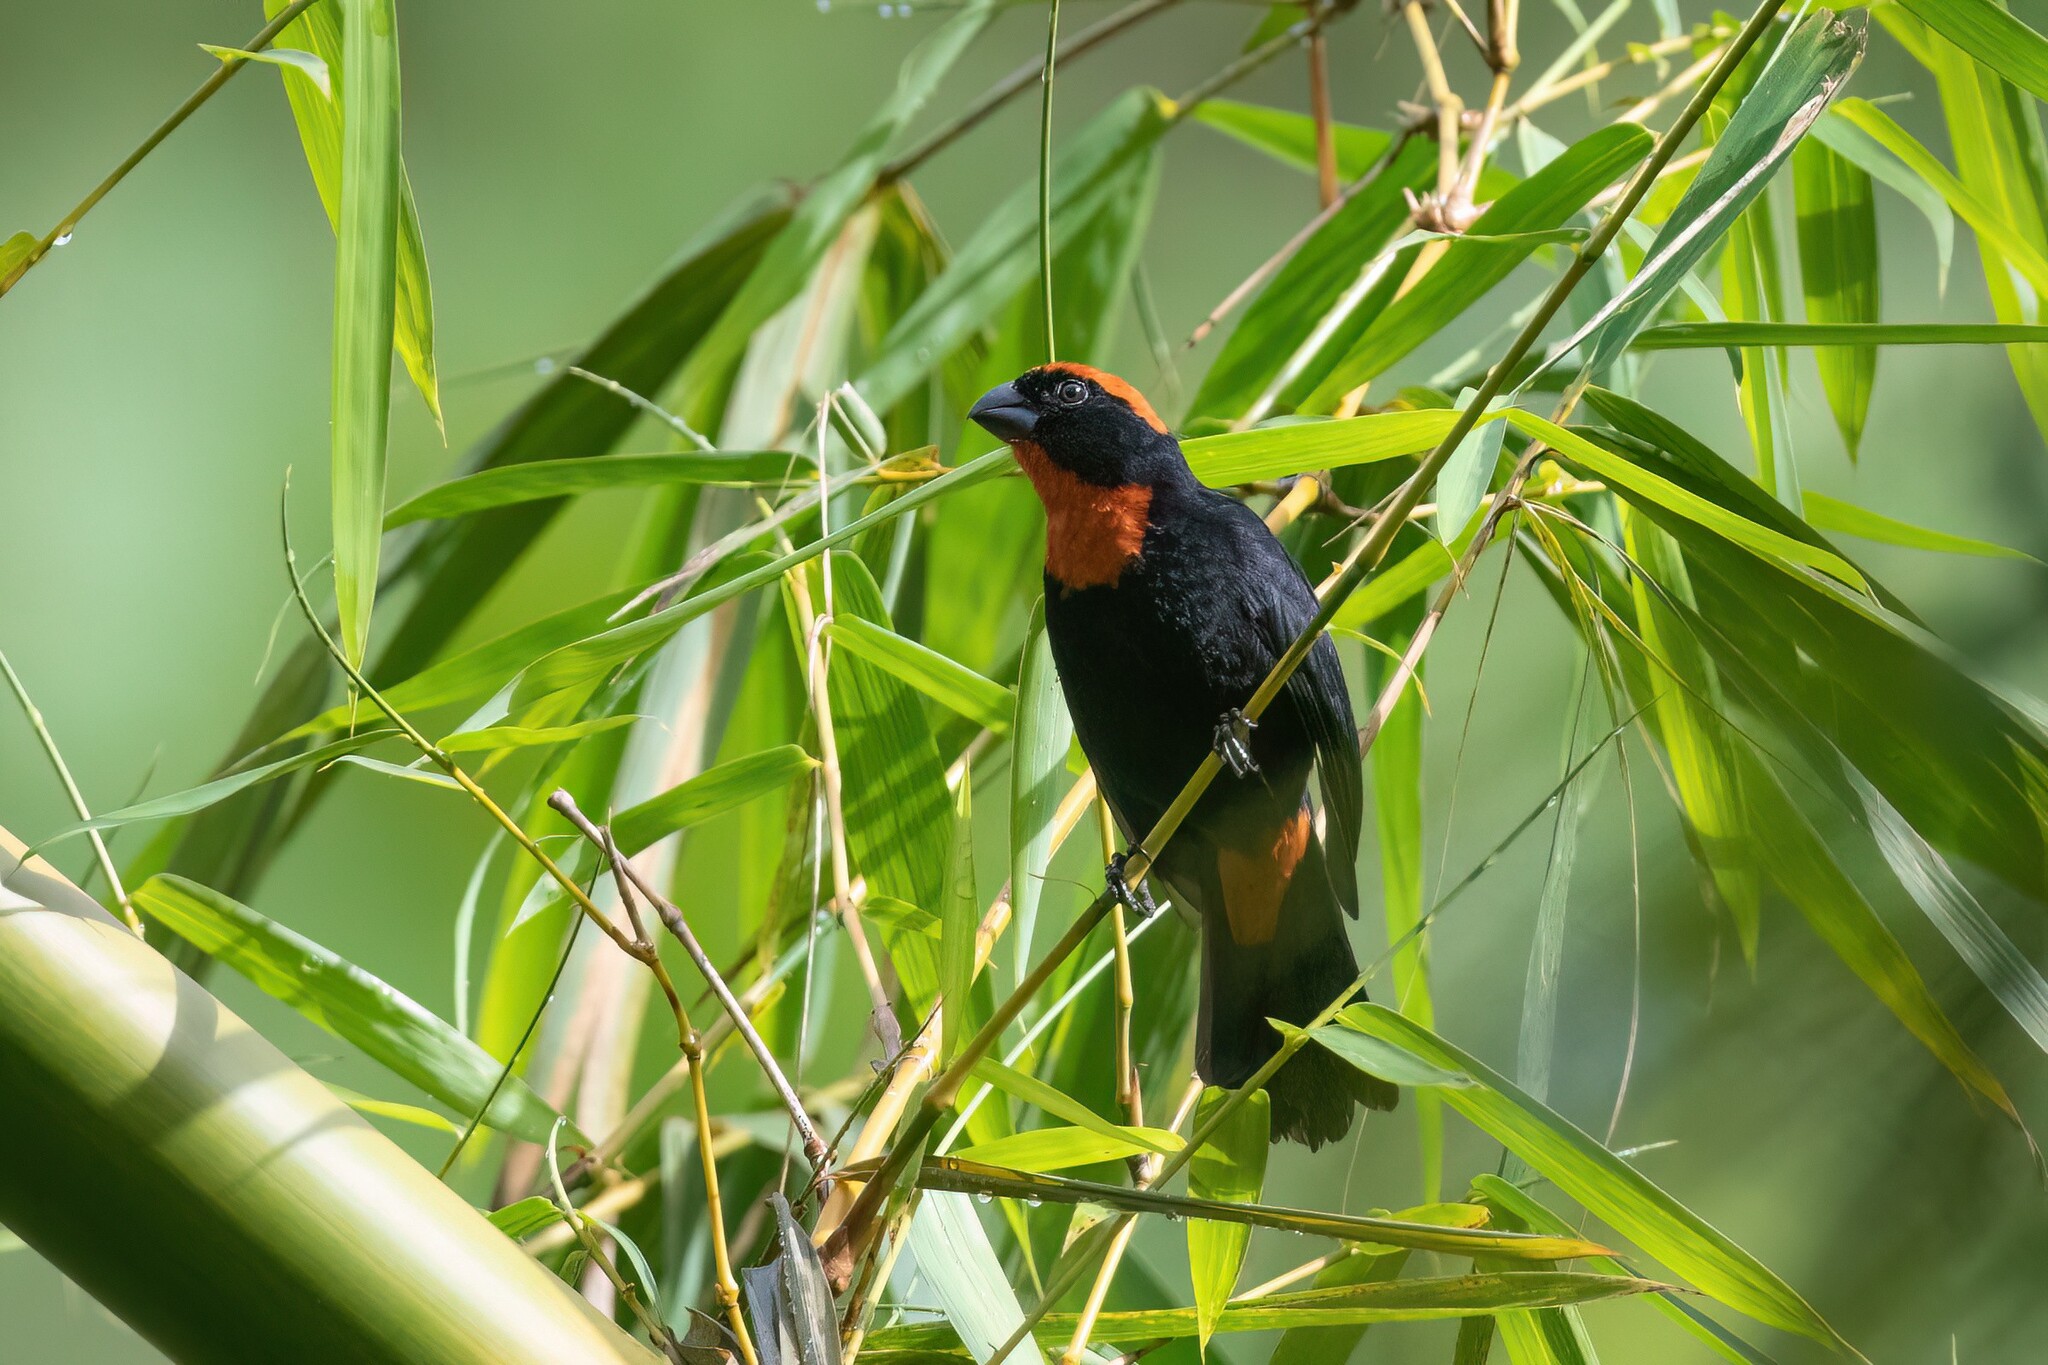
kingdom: Animalia
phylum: Chordata
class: Aves
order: Passeriformes
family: Thraupidae
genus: Melopyrrha
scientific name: Melopyrrha portoricensis
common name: Puerto rican bullfinch
